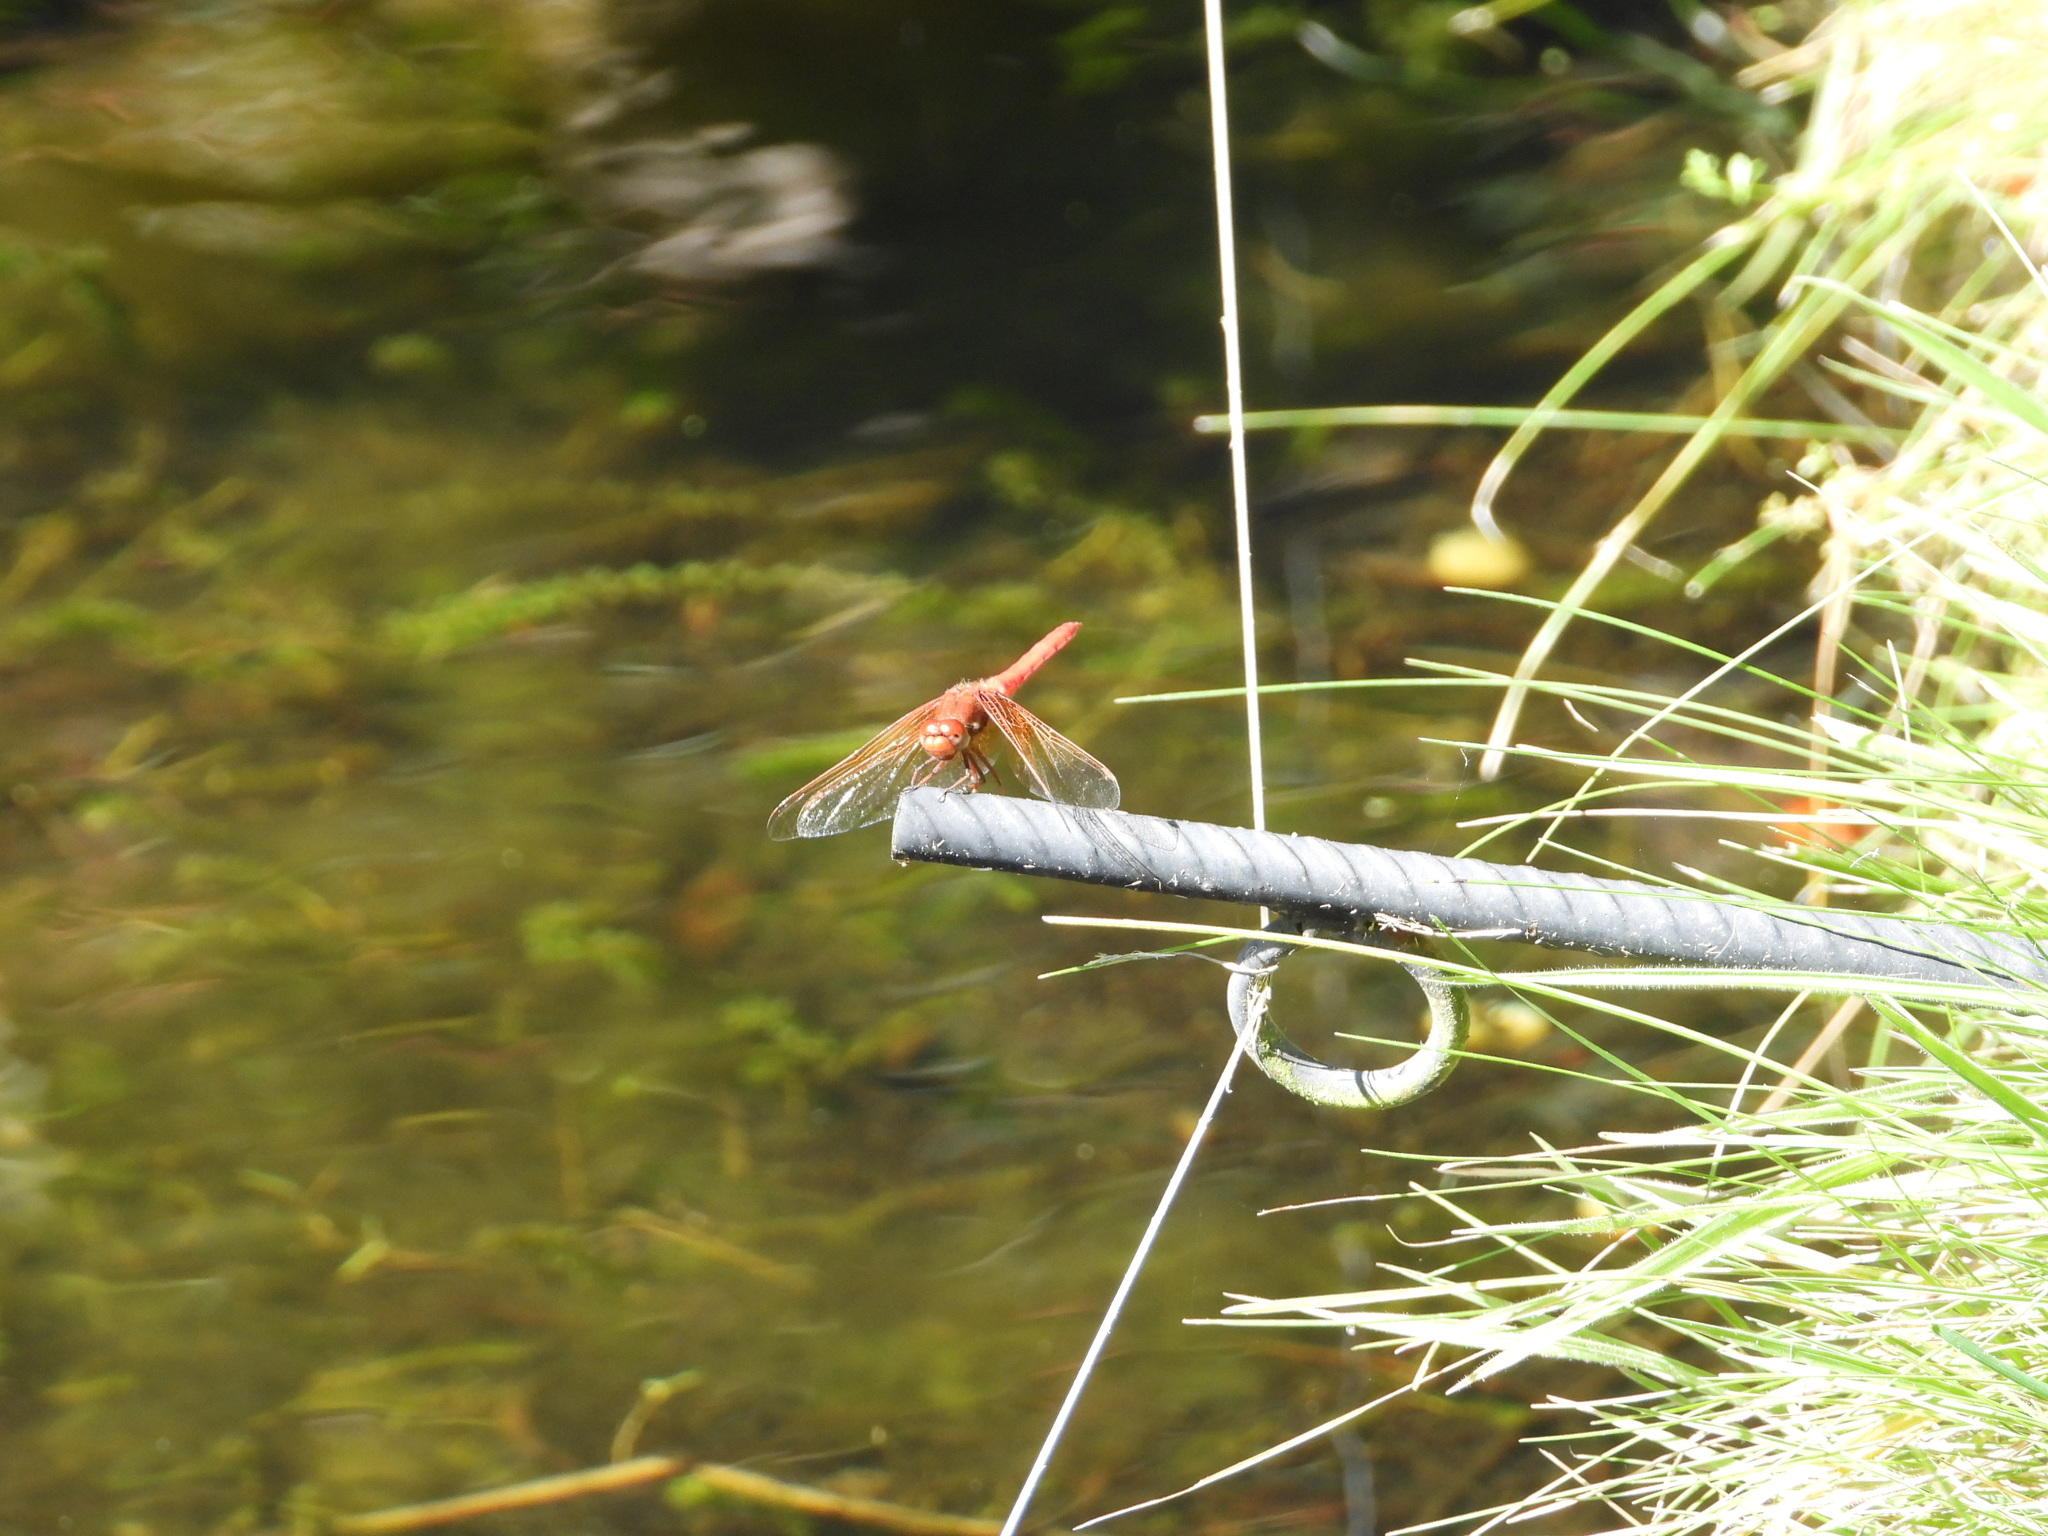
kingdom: Animalia
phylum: Arthropoda
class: Insecta
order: Odonata
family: Libellulidae
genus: Sympetrum
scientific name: Sympetrum illotum
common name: Cardinal meadowhawk
